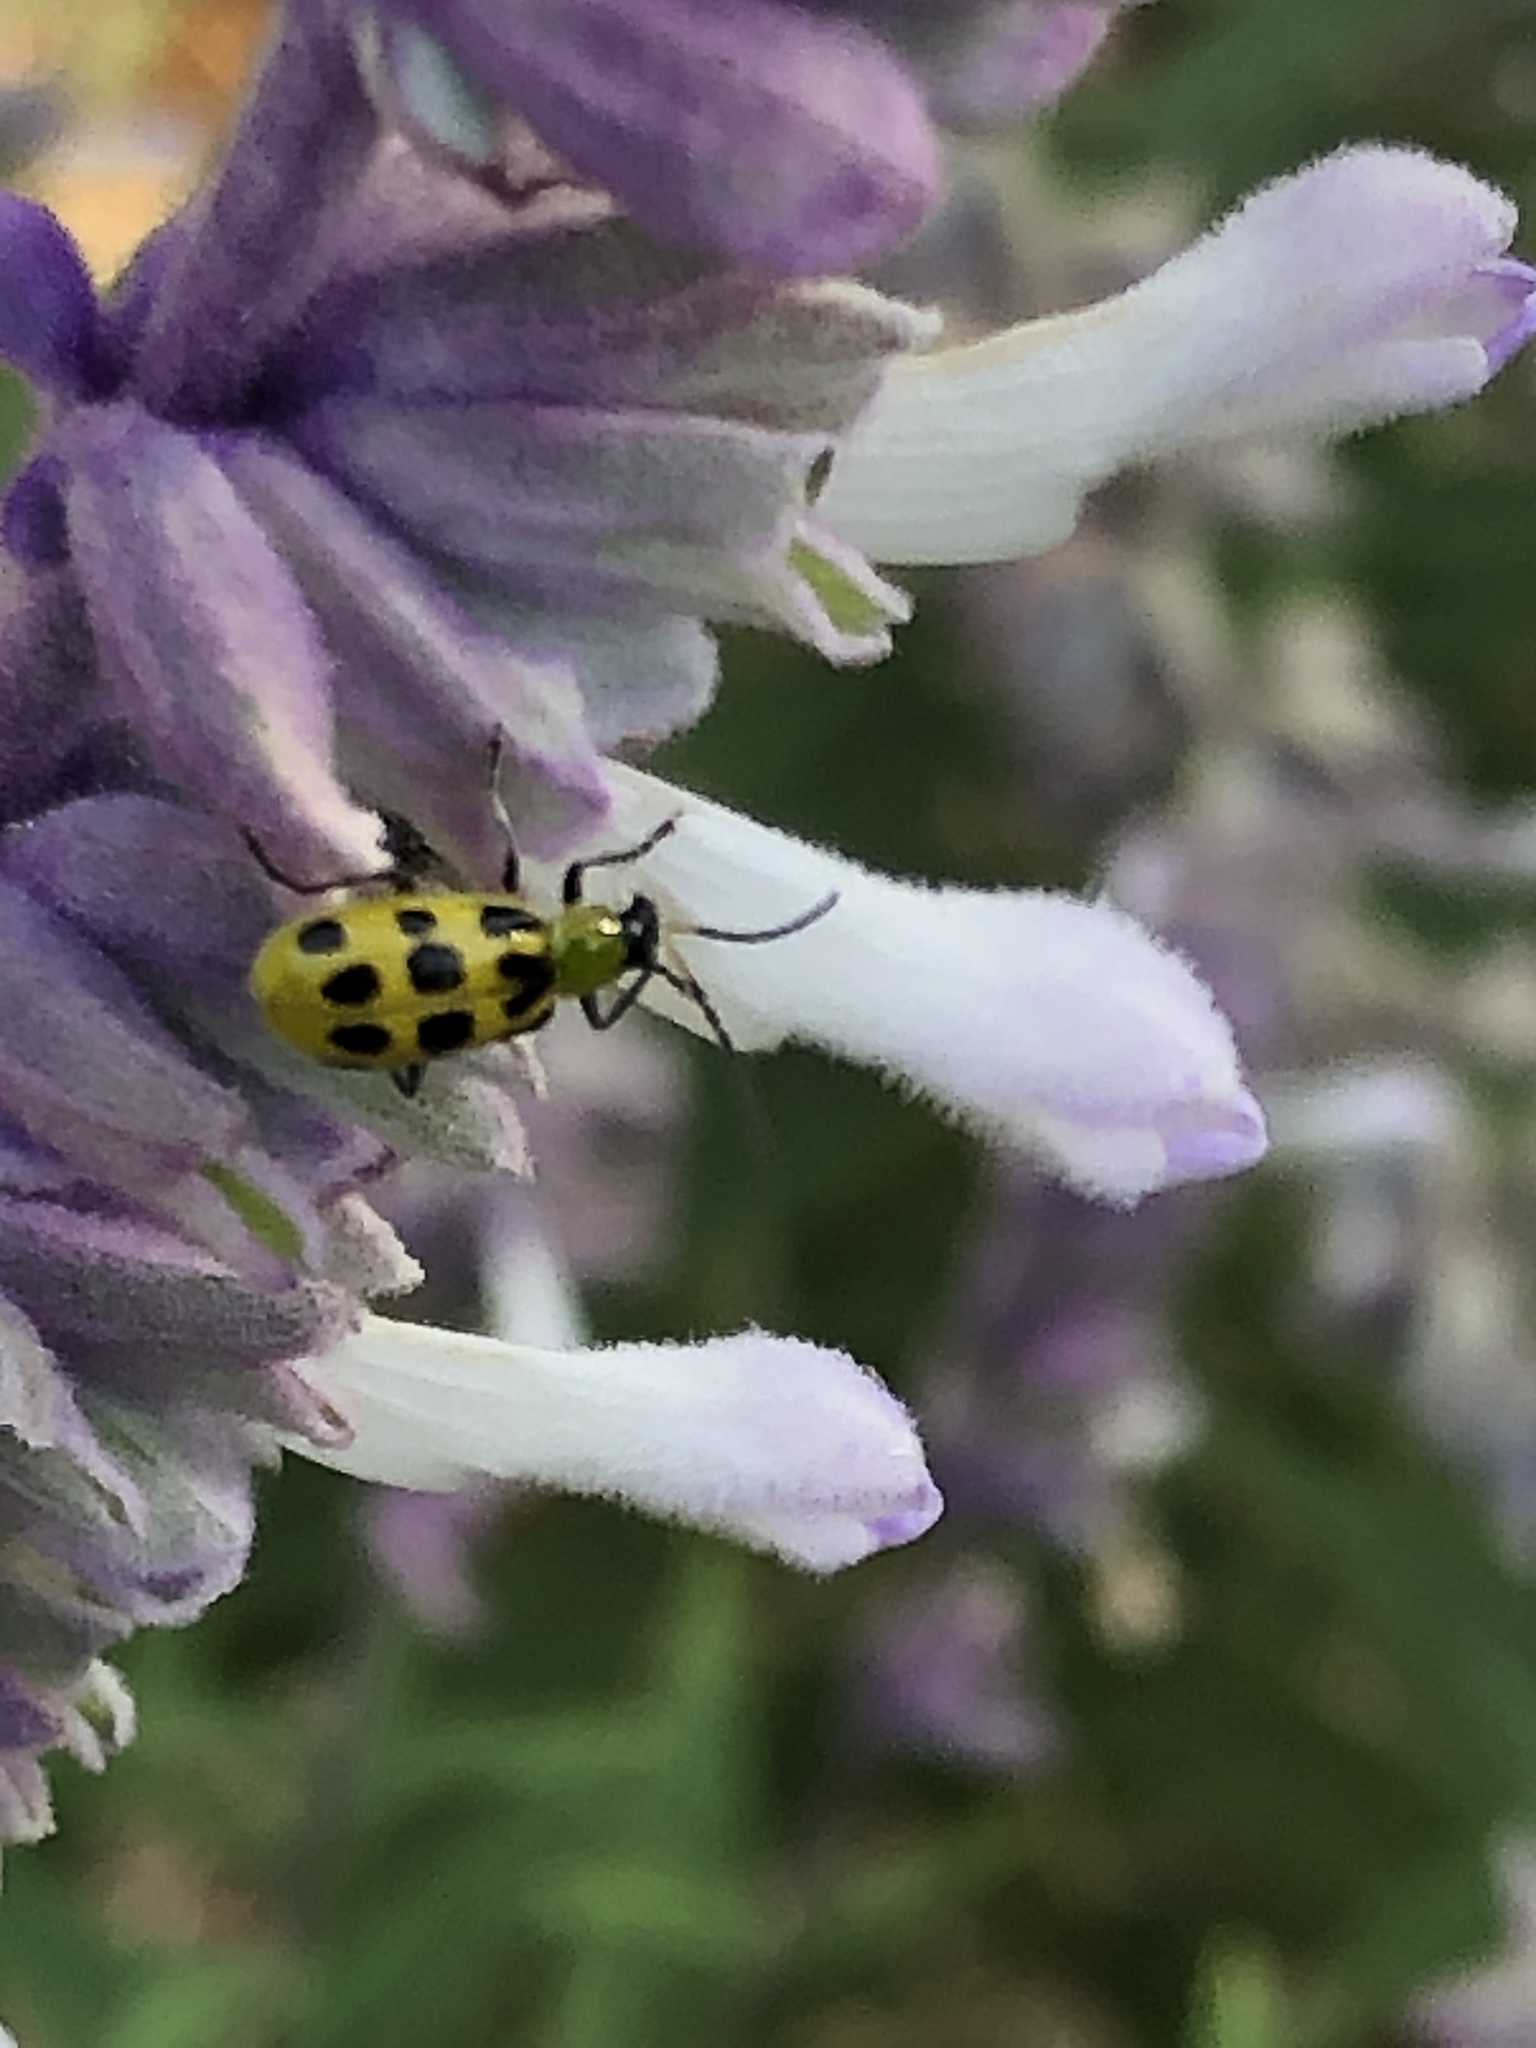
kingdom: Animalia
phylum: Arthropoda
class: Insecta
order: Coleoptera
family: Chrysomelidae
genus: Diabrotica
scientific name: Diabrotica undecimpunctata
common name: Spotted cucumber beetle
